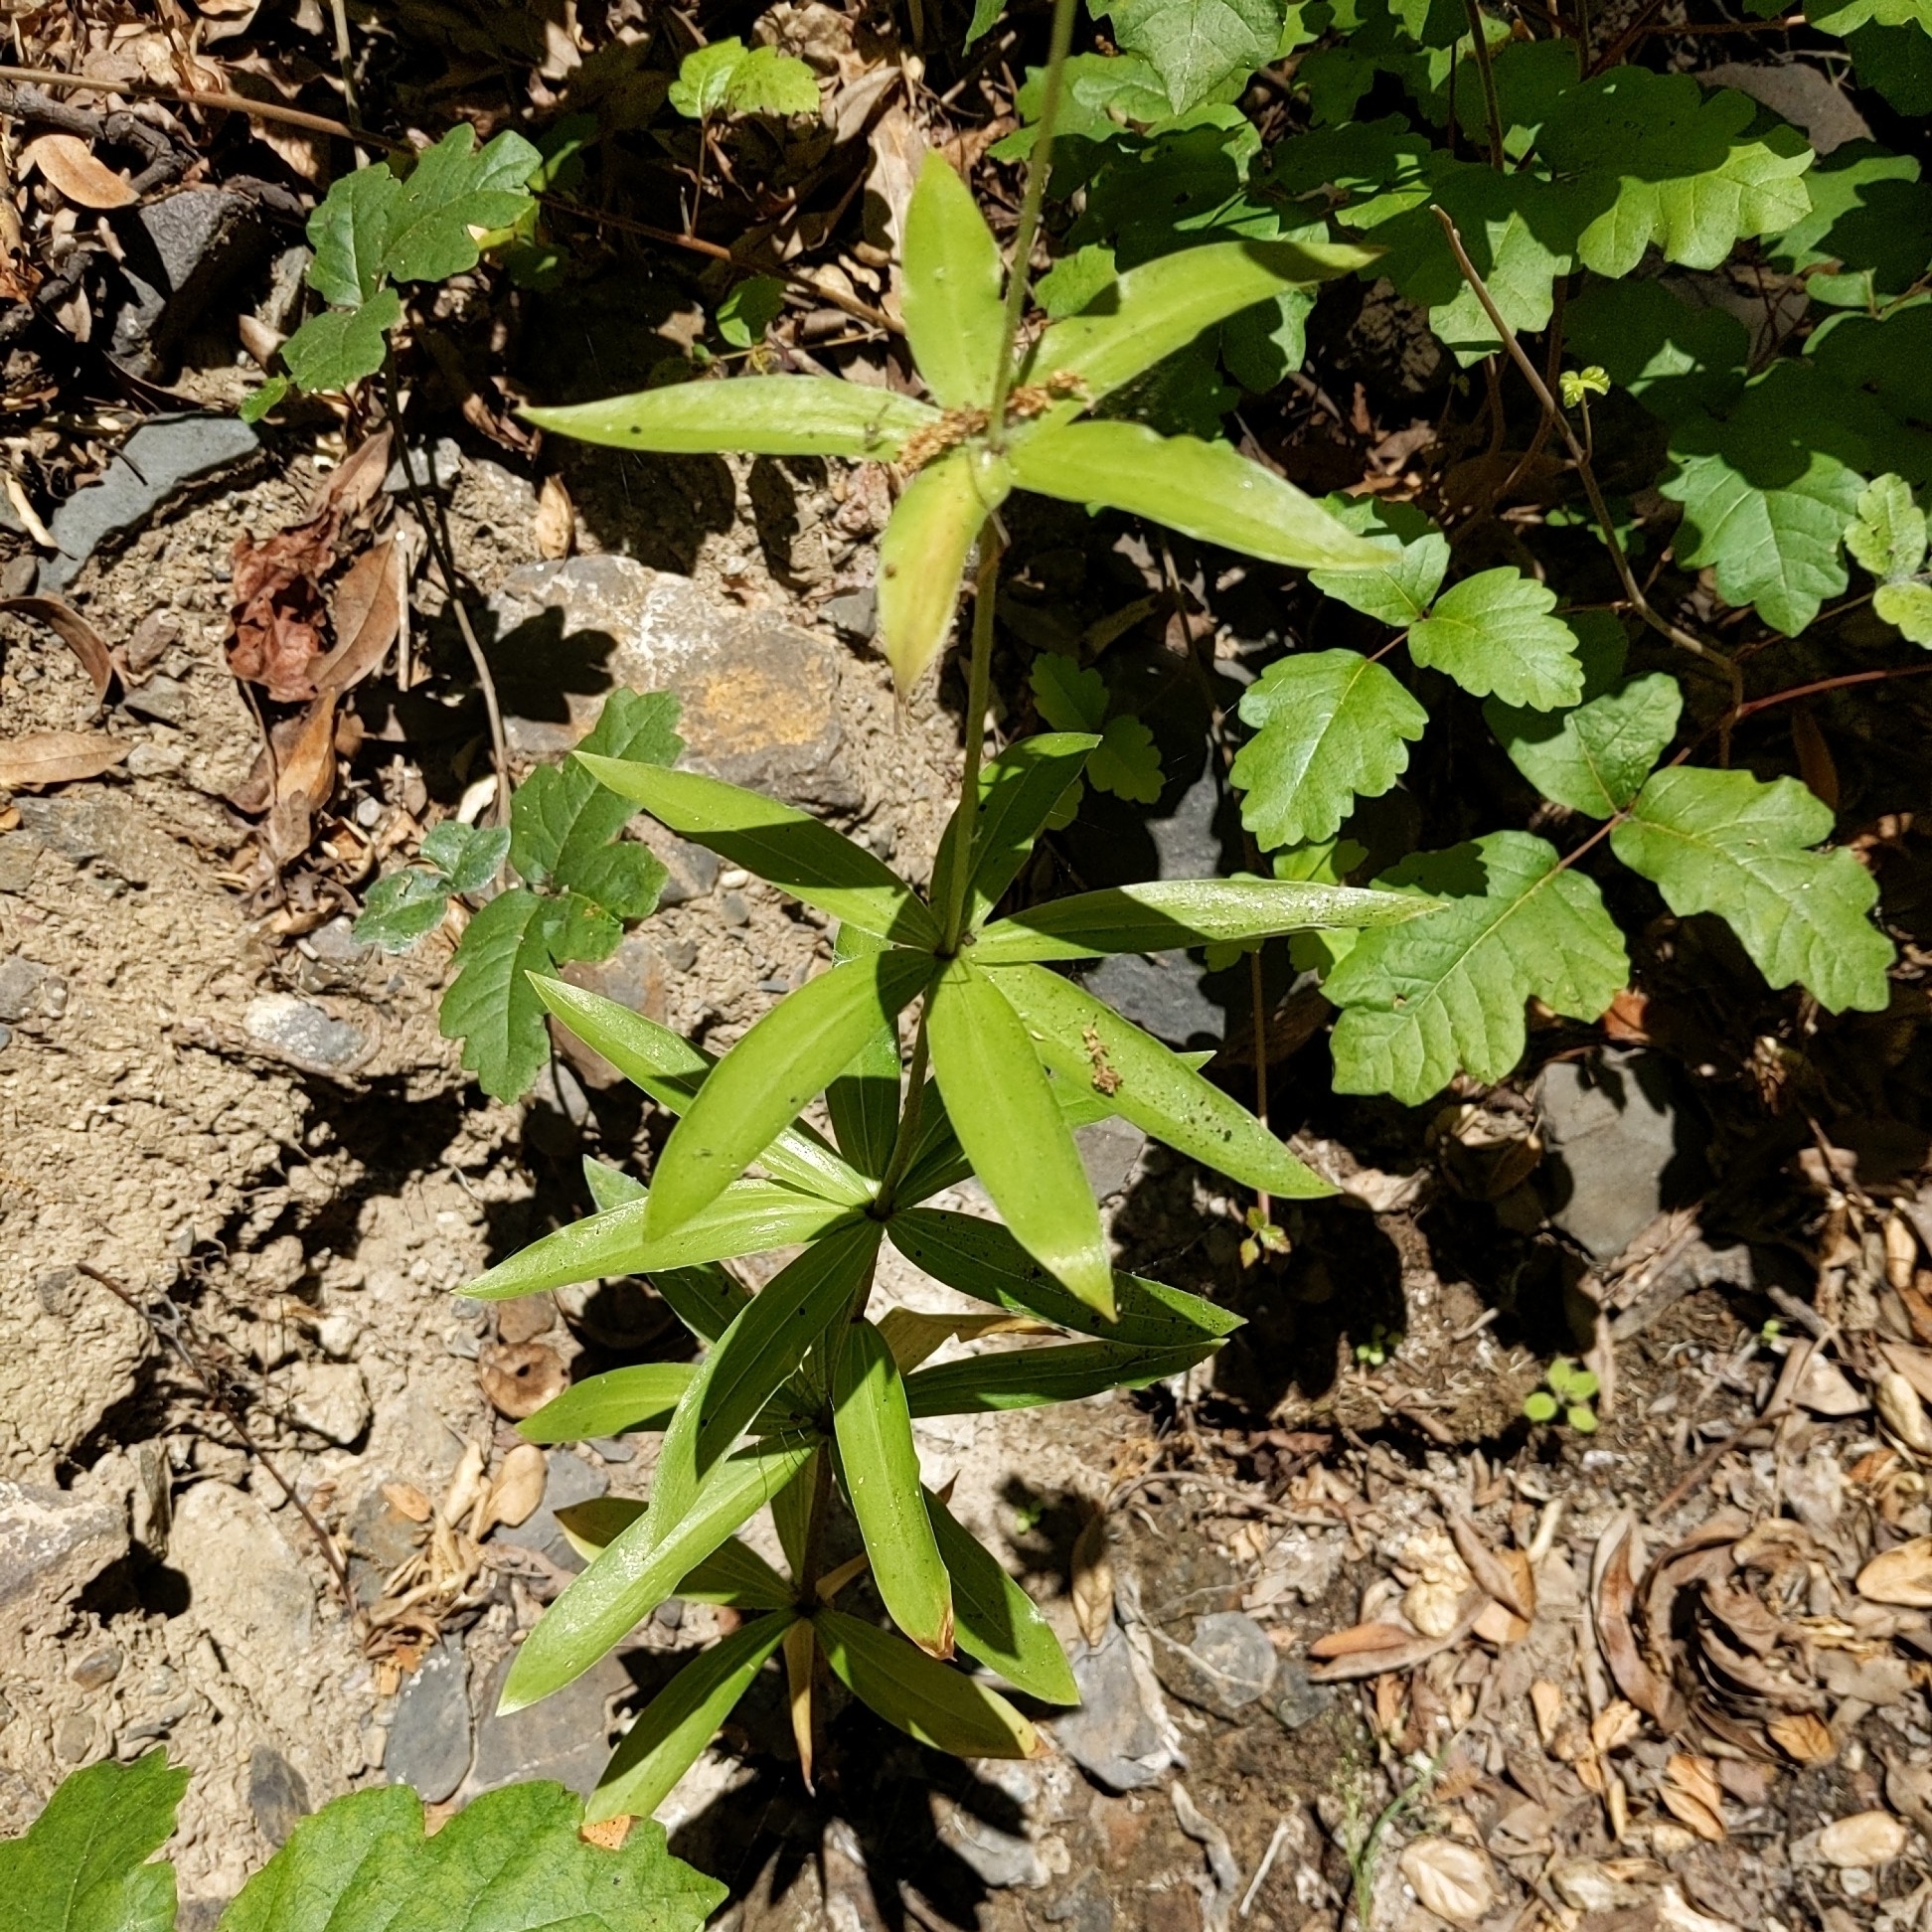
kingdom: Plantae
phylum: Tracheophyta
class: Liliopsida
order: Liliales
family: Liliaceae
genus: Lilium
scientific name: Lilium humboldtii
